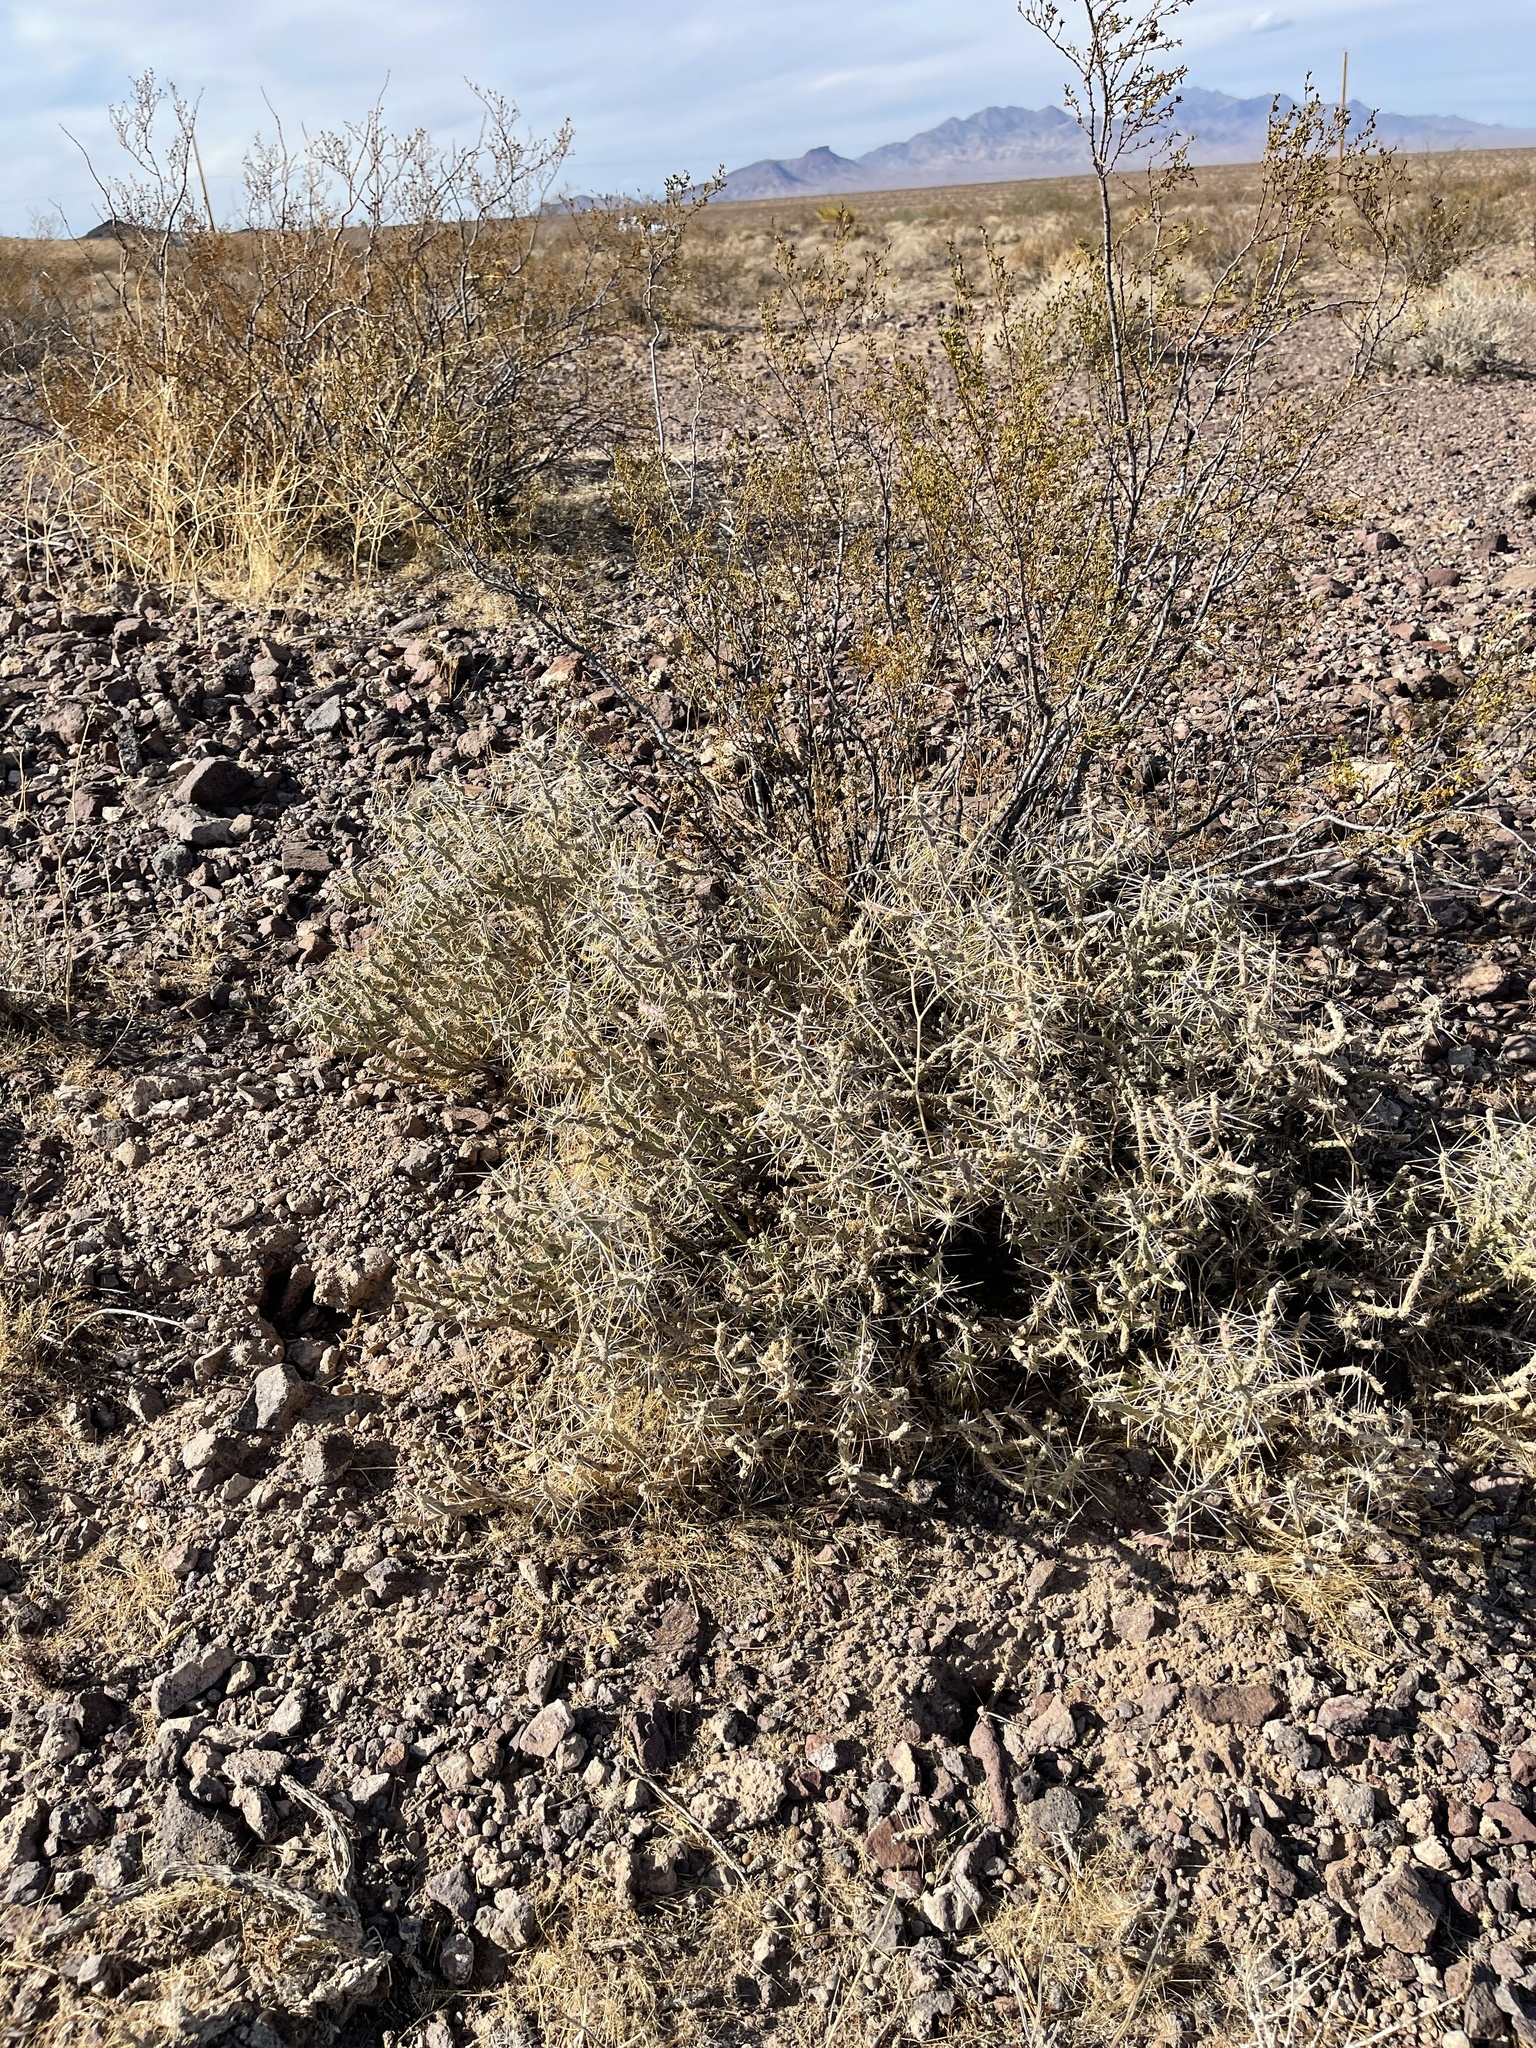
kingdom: Plantae
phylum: Tracheophyta
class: Magnoliopsida
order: Caryophyllales
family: Cactaceae
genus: Cylindropuntia
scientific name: Cylindropuntia ramosissima
